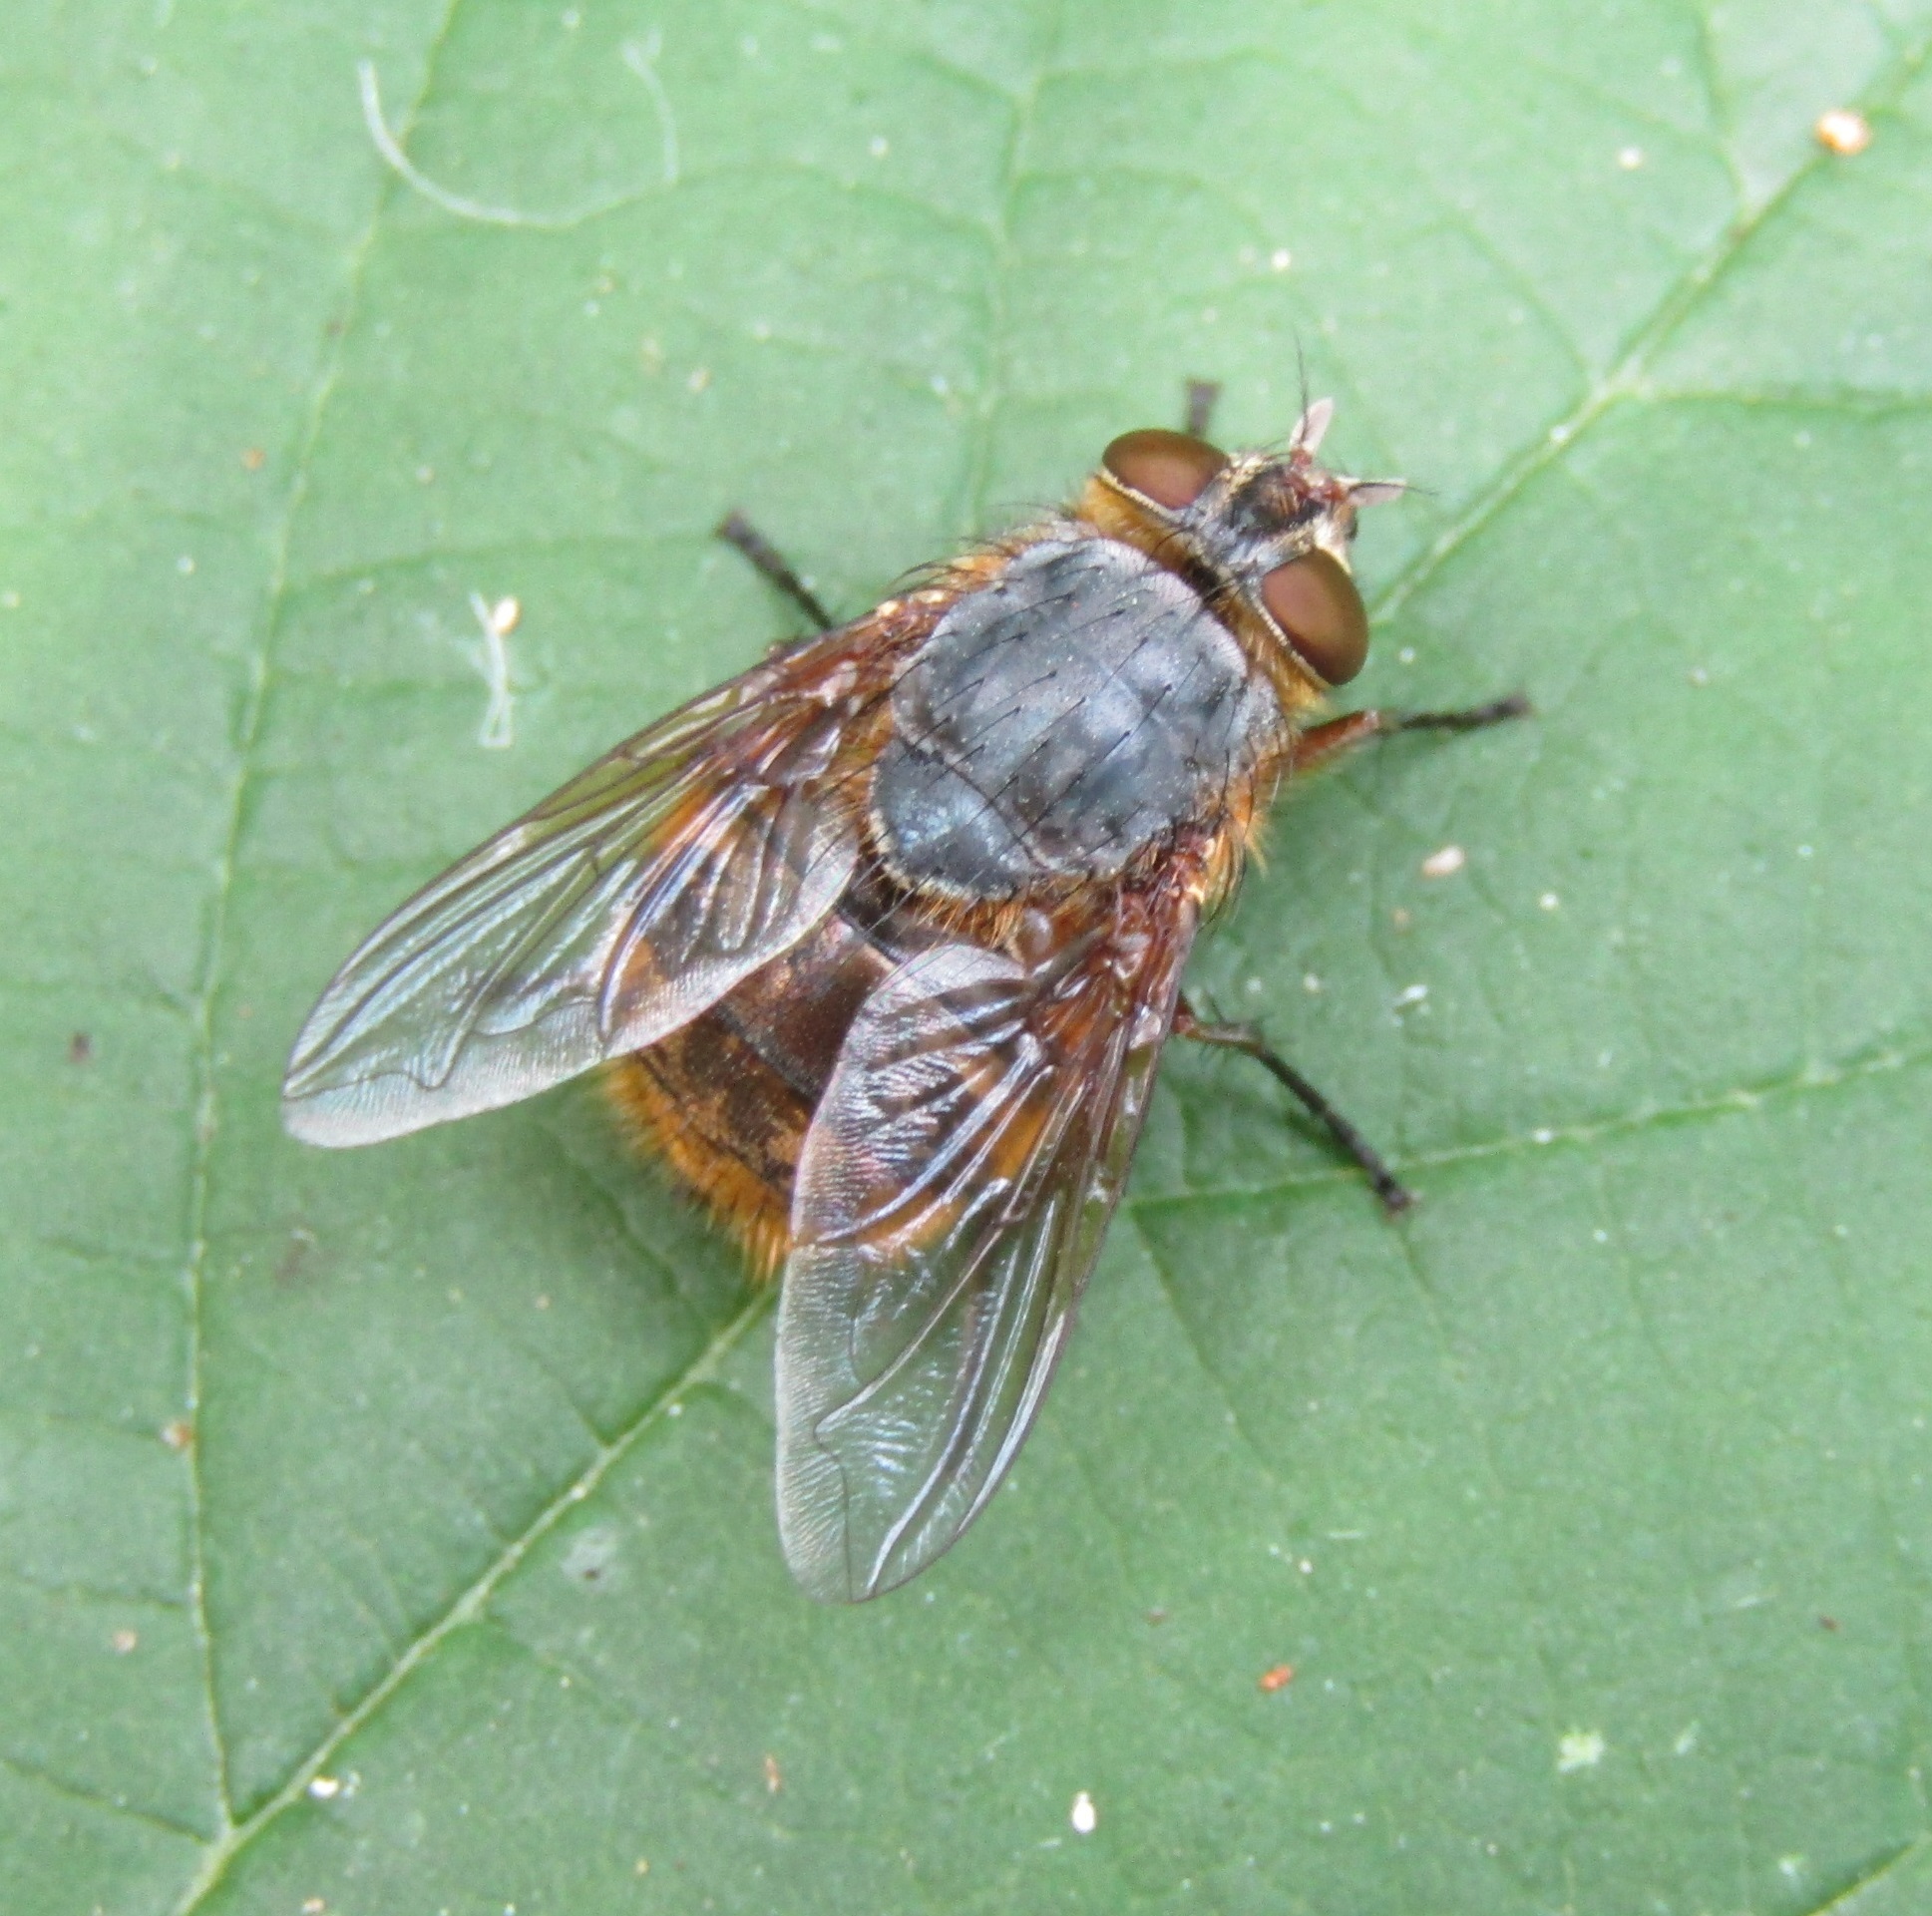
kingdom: Animalia
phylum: Arthropoda
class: Insecta
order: Diptera
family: Calliphoridae
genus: Calliphora
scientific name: Calliphora hilli
